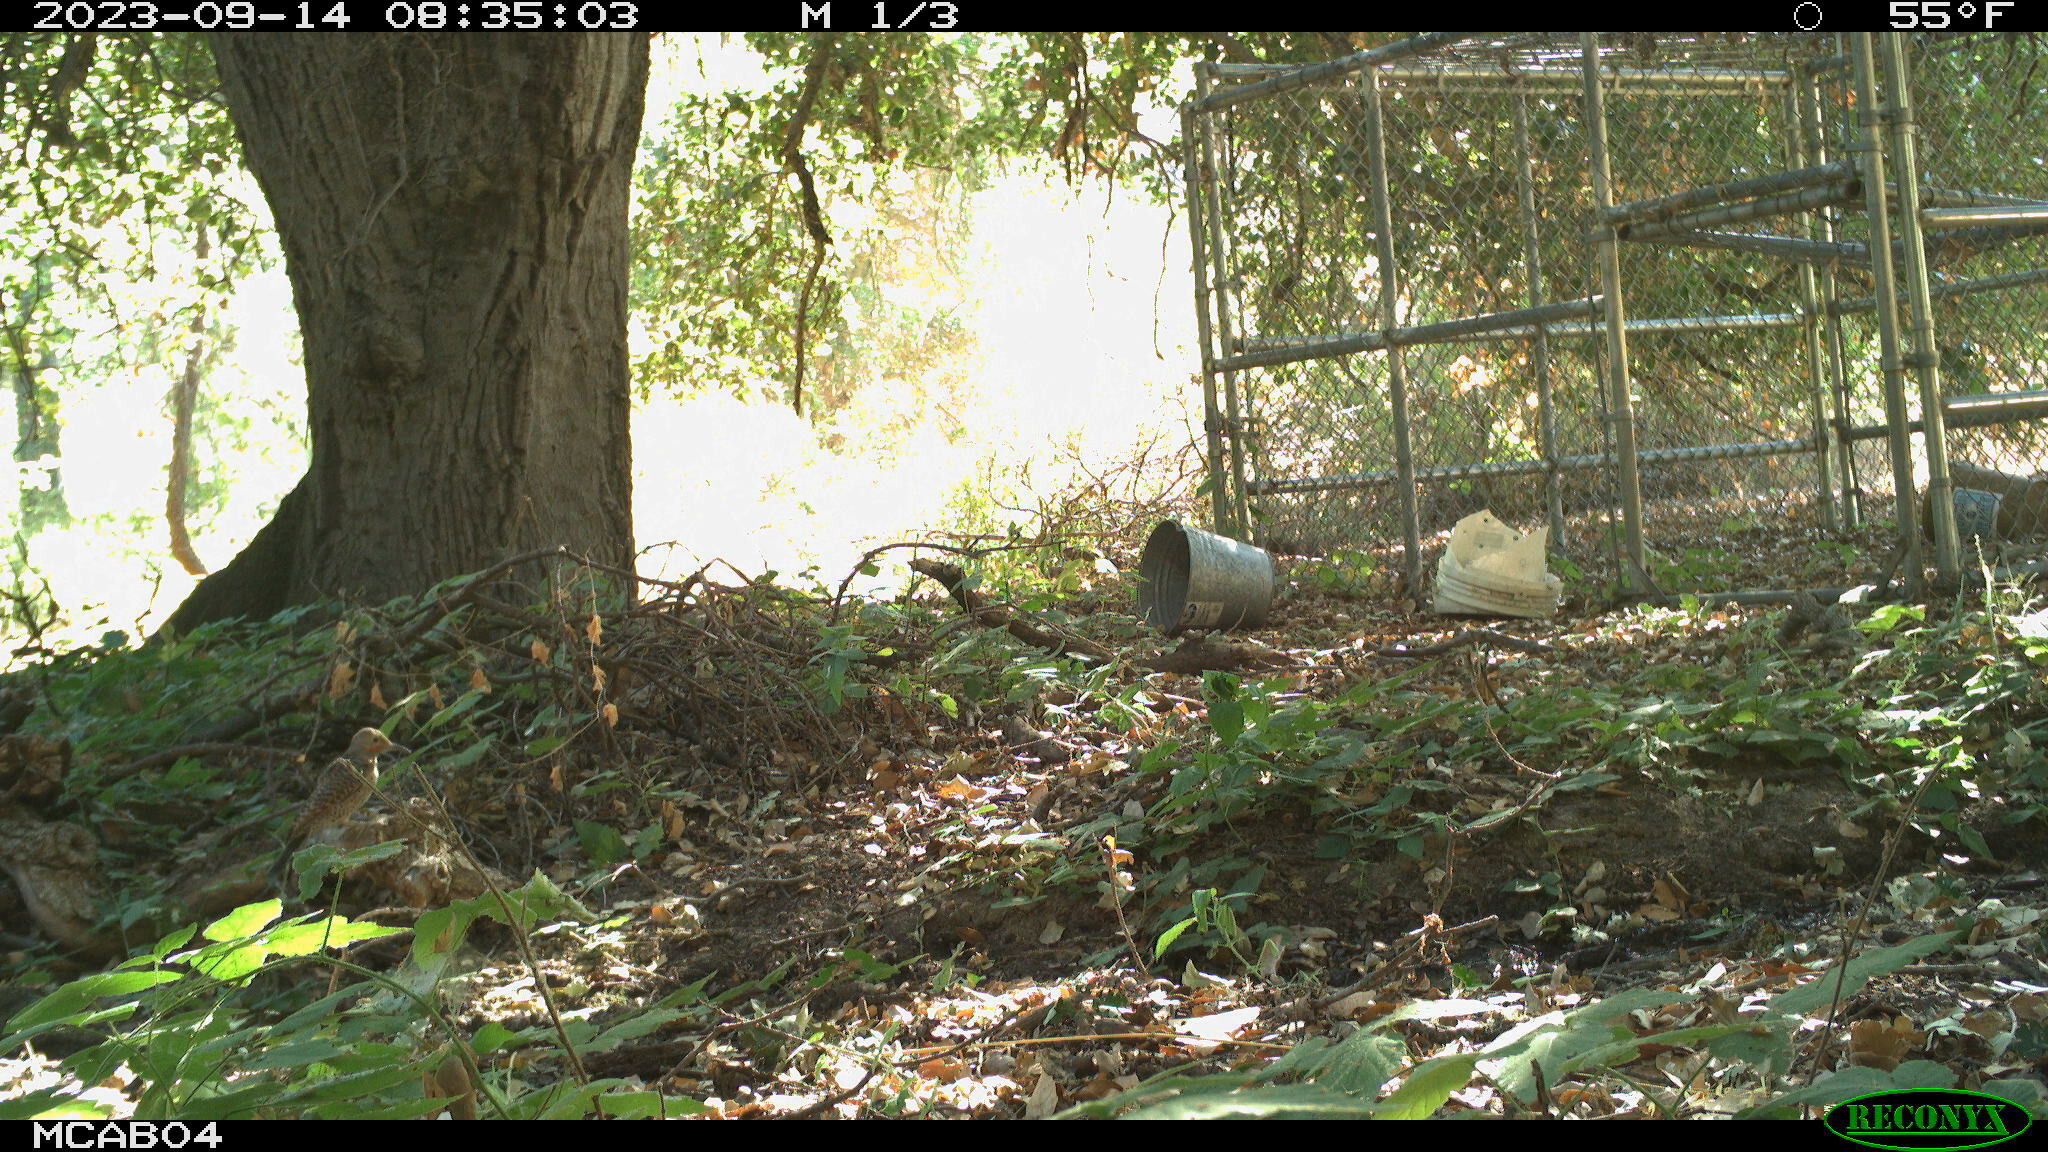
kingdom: Animalia
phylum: Chordata
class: Aves
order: Piciformes
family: Picidae
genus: Colaptes
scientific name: Colaptes auratus
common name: Northern flicker
